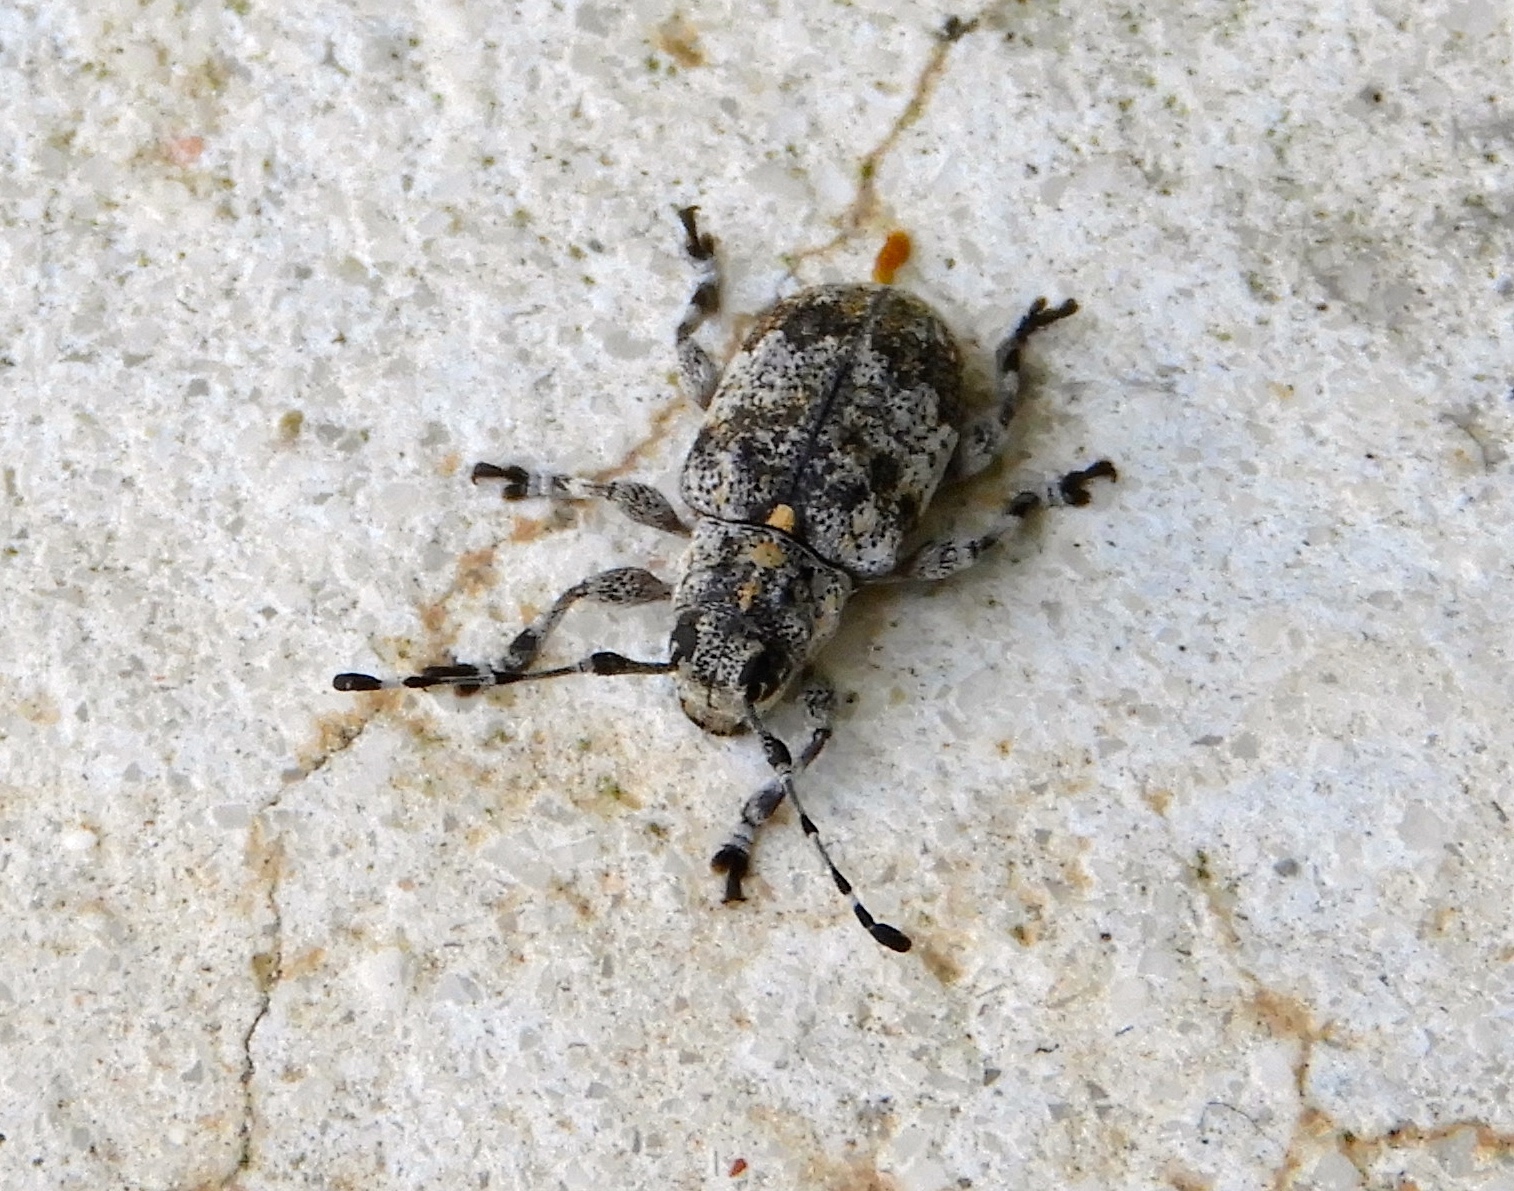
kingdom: Animalia
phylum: Arthropoda
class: Insecta
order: Coleoptera
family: Cerambycidae
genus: Thryallis
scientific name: Thryallis
